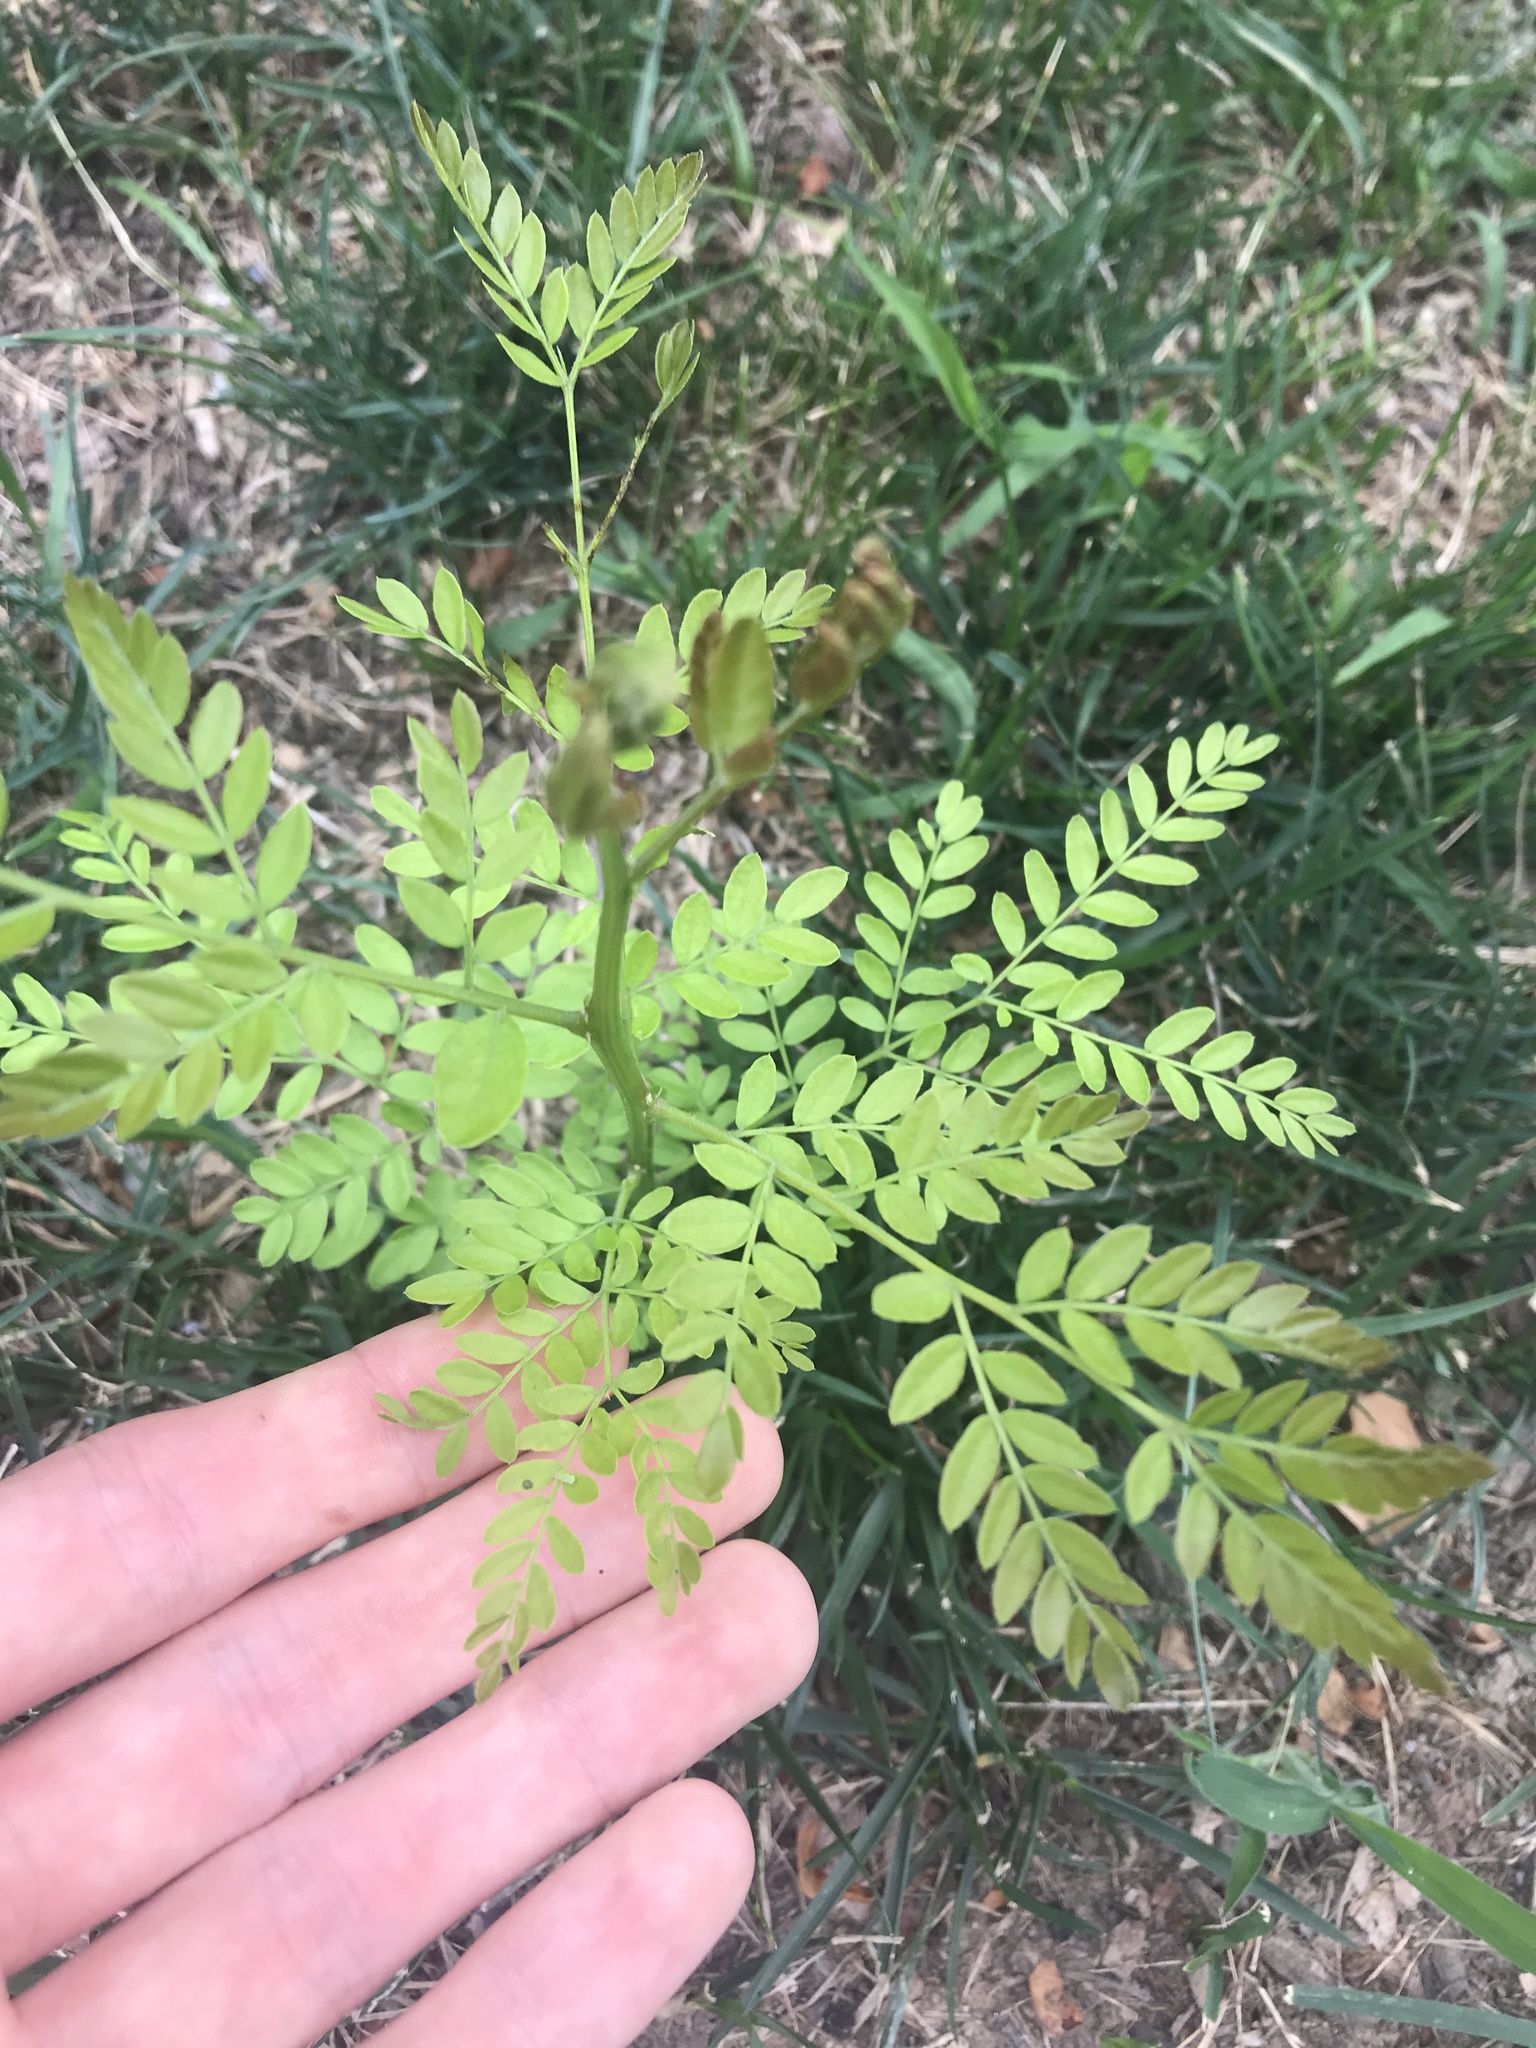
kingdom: Plantae
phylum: Tracheophyta
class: Magnoliopsida
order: Fabales
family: Fabaceae
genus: Gleditsia
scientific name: Gleditsia triacanthos
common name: Common honeylocust
